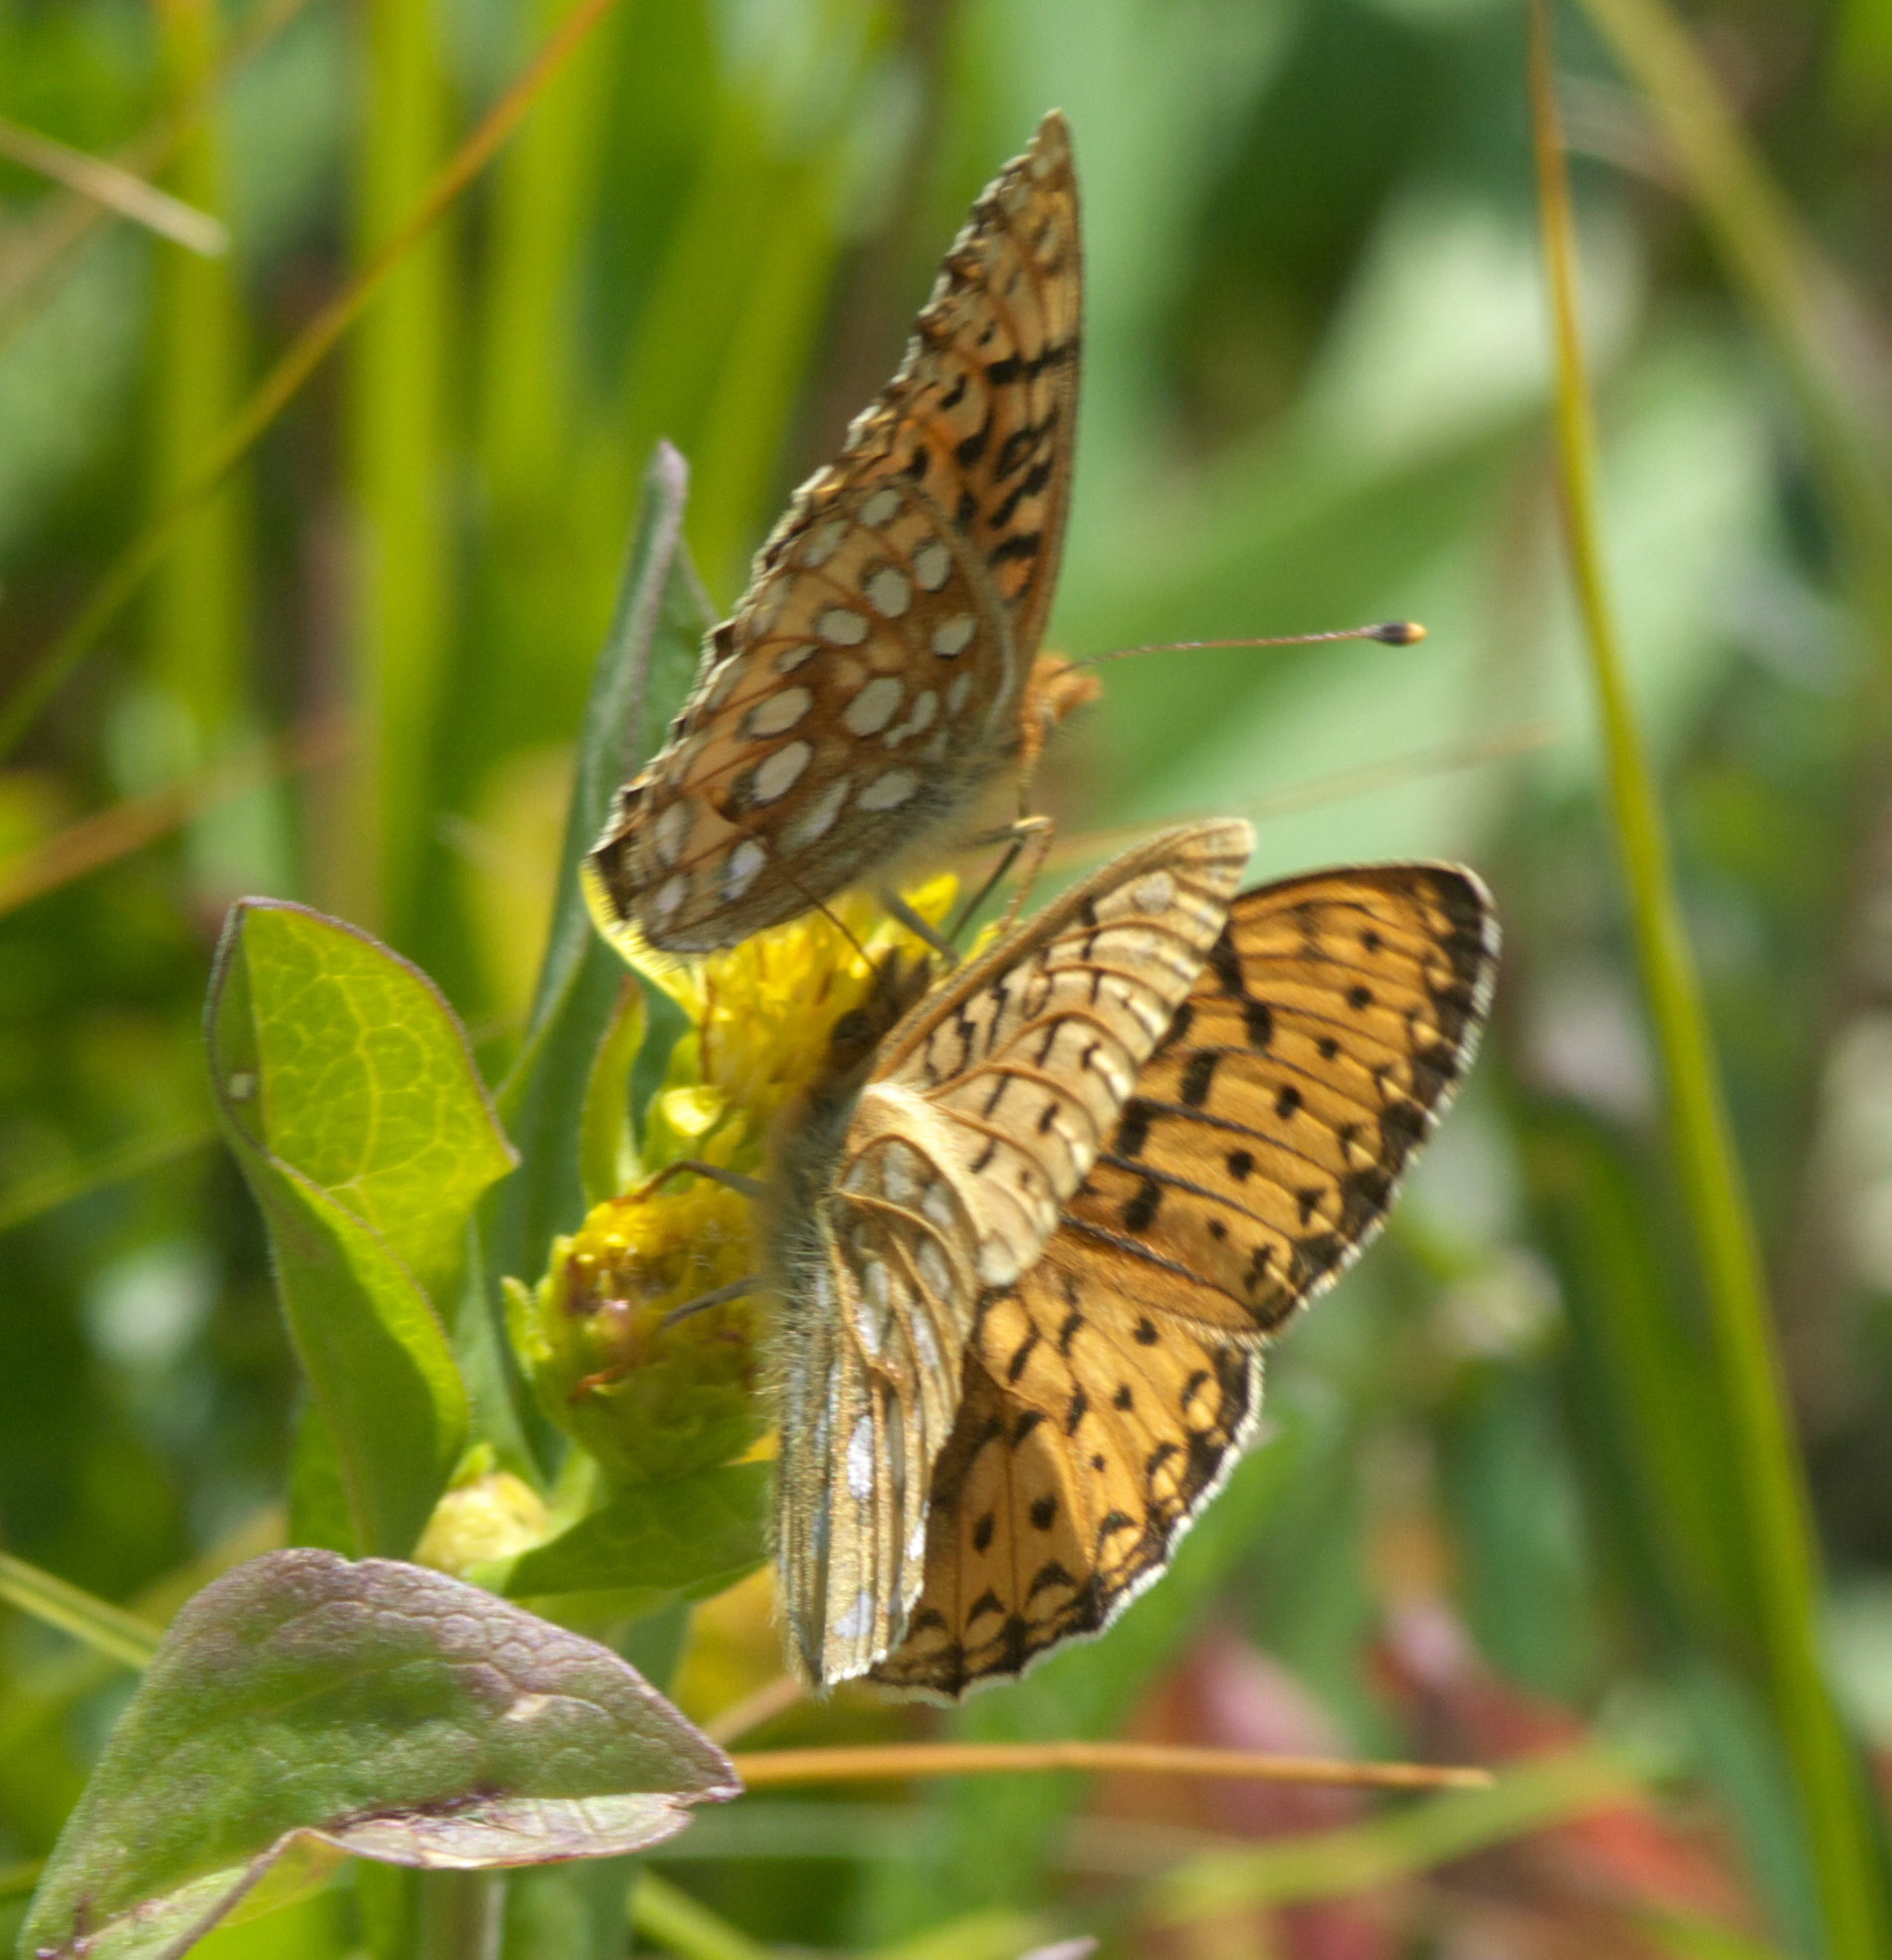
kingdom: Animalia
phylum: Arthropoda
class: Insecta
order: Lepidoptera
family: Nymphalidae
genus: Speyeria
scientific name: Speyeria mormonia
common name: Mormon fritillary
